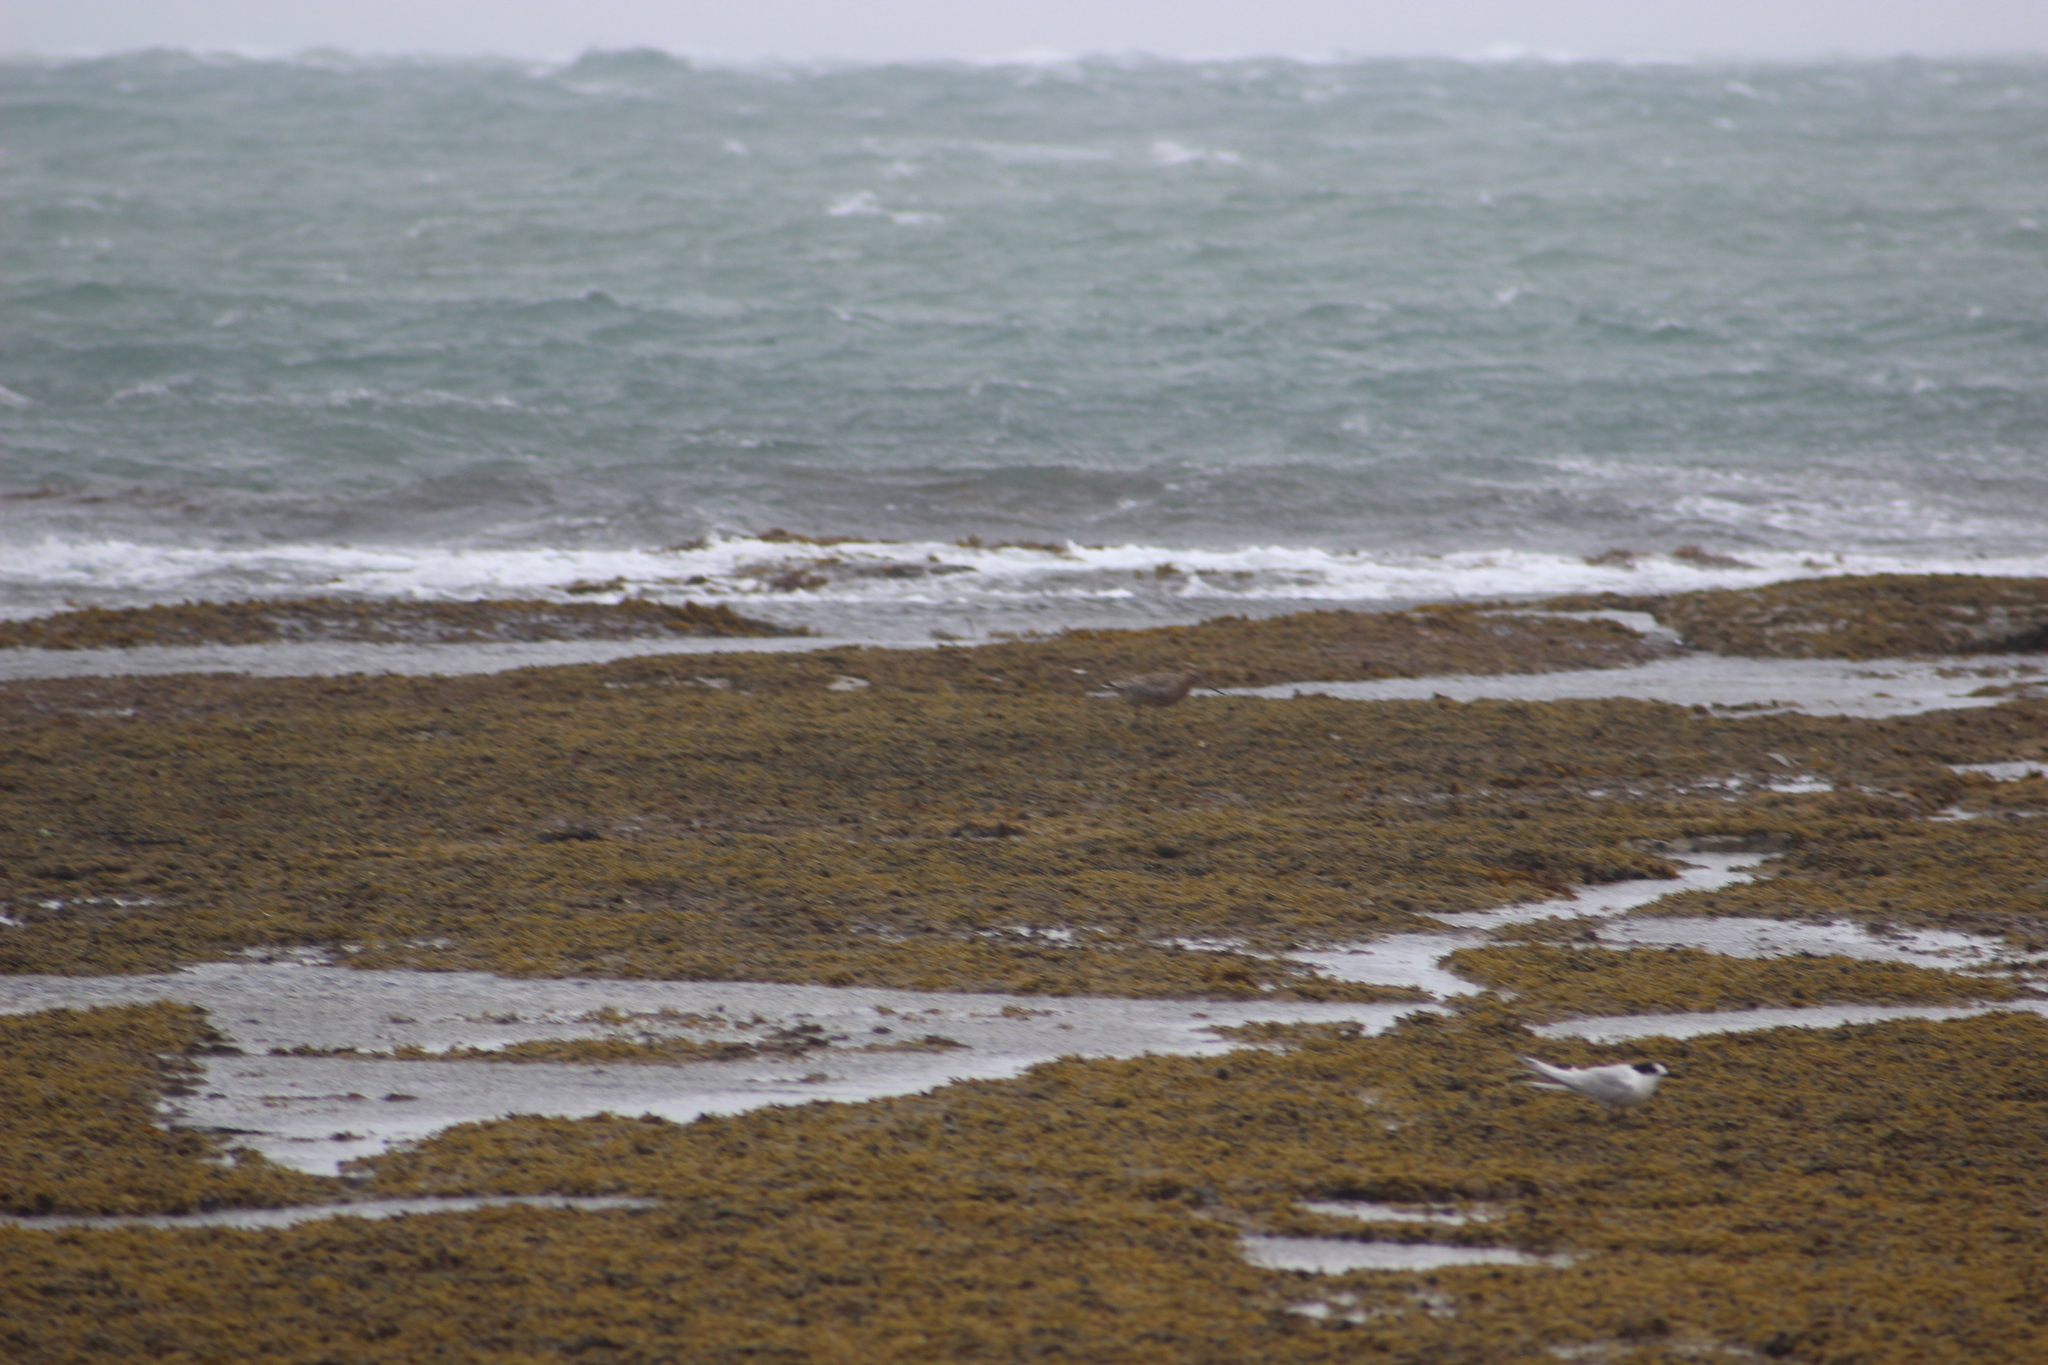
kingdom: Animalia
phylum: Chordata
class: Aves
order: Charadriiformes
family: Scolopacidae
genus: Limosa
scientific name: Limosa lapponica
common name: Bar-tailed godwit
